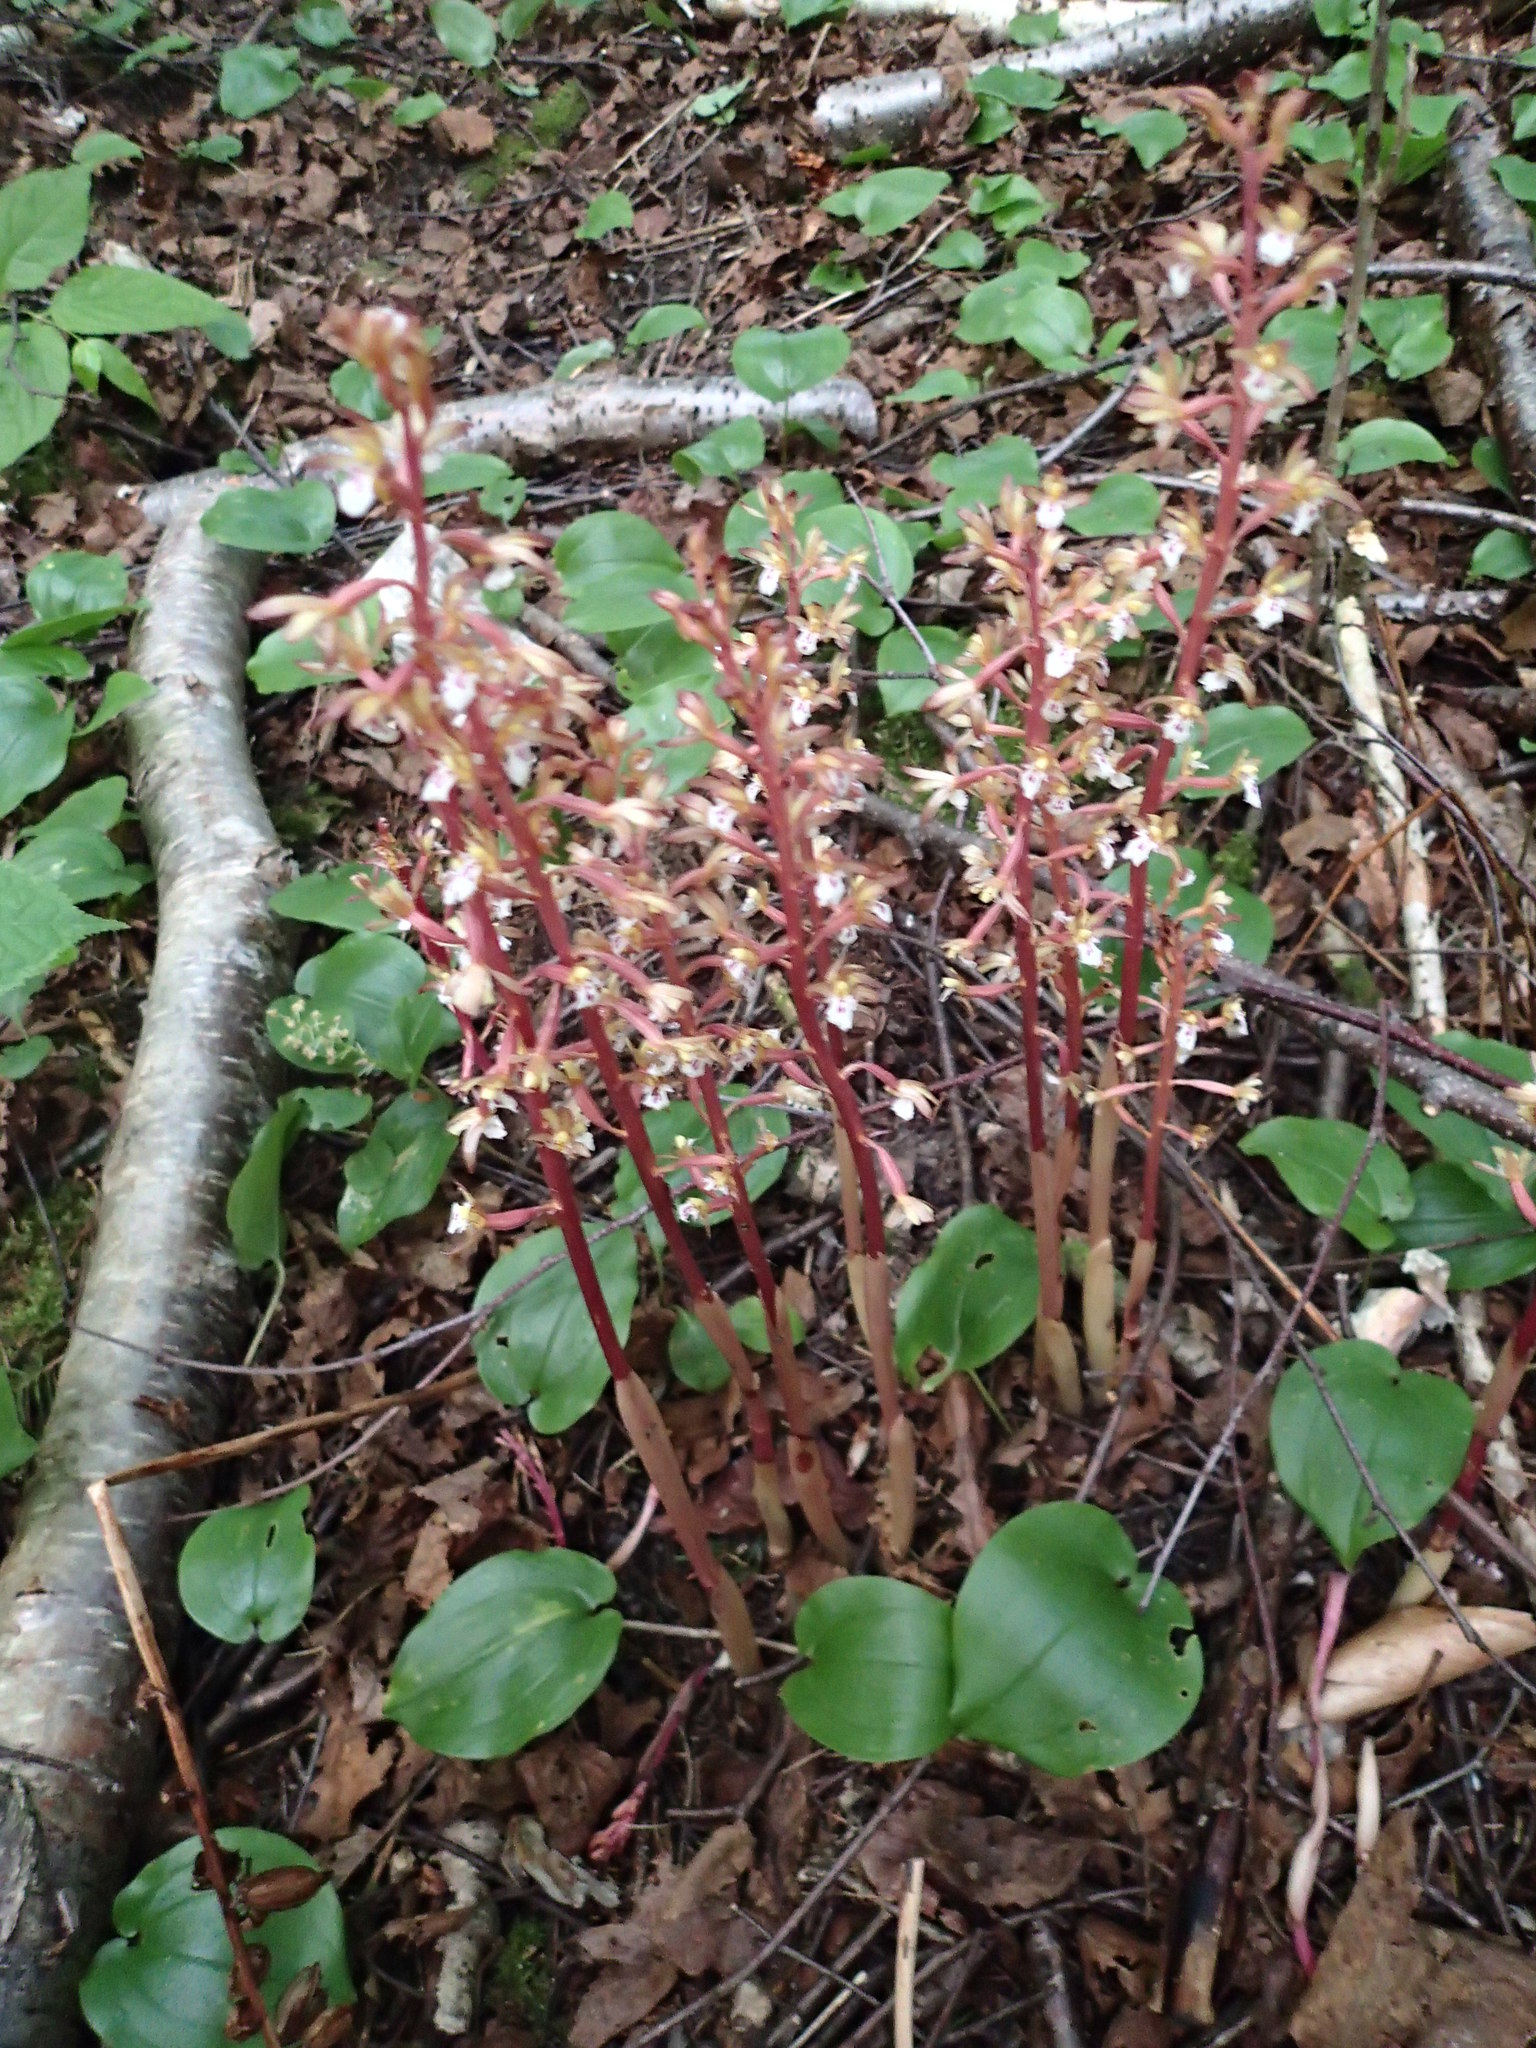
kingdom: Plantae
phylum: Tracheophyta
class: Liliopsida
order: Asparagales
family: Orchidaceae
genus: Corallorhiza
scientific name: Corallorhiza maculata
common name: Spotted coralroot
